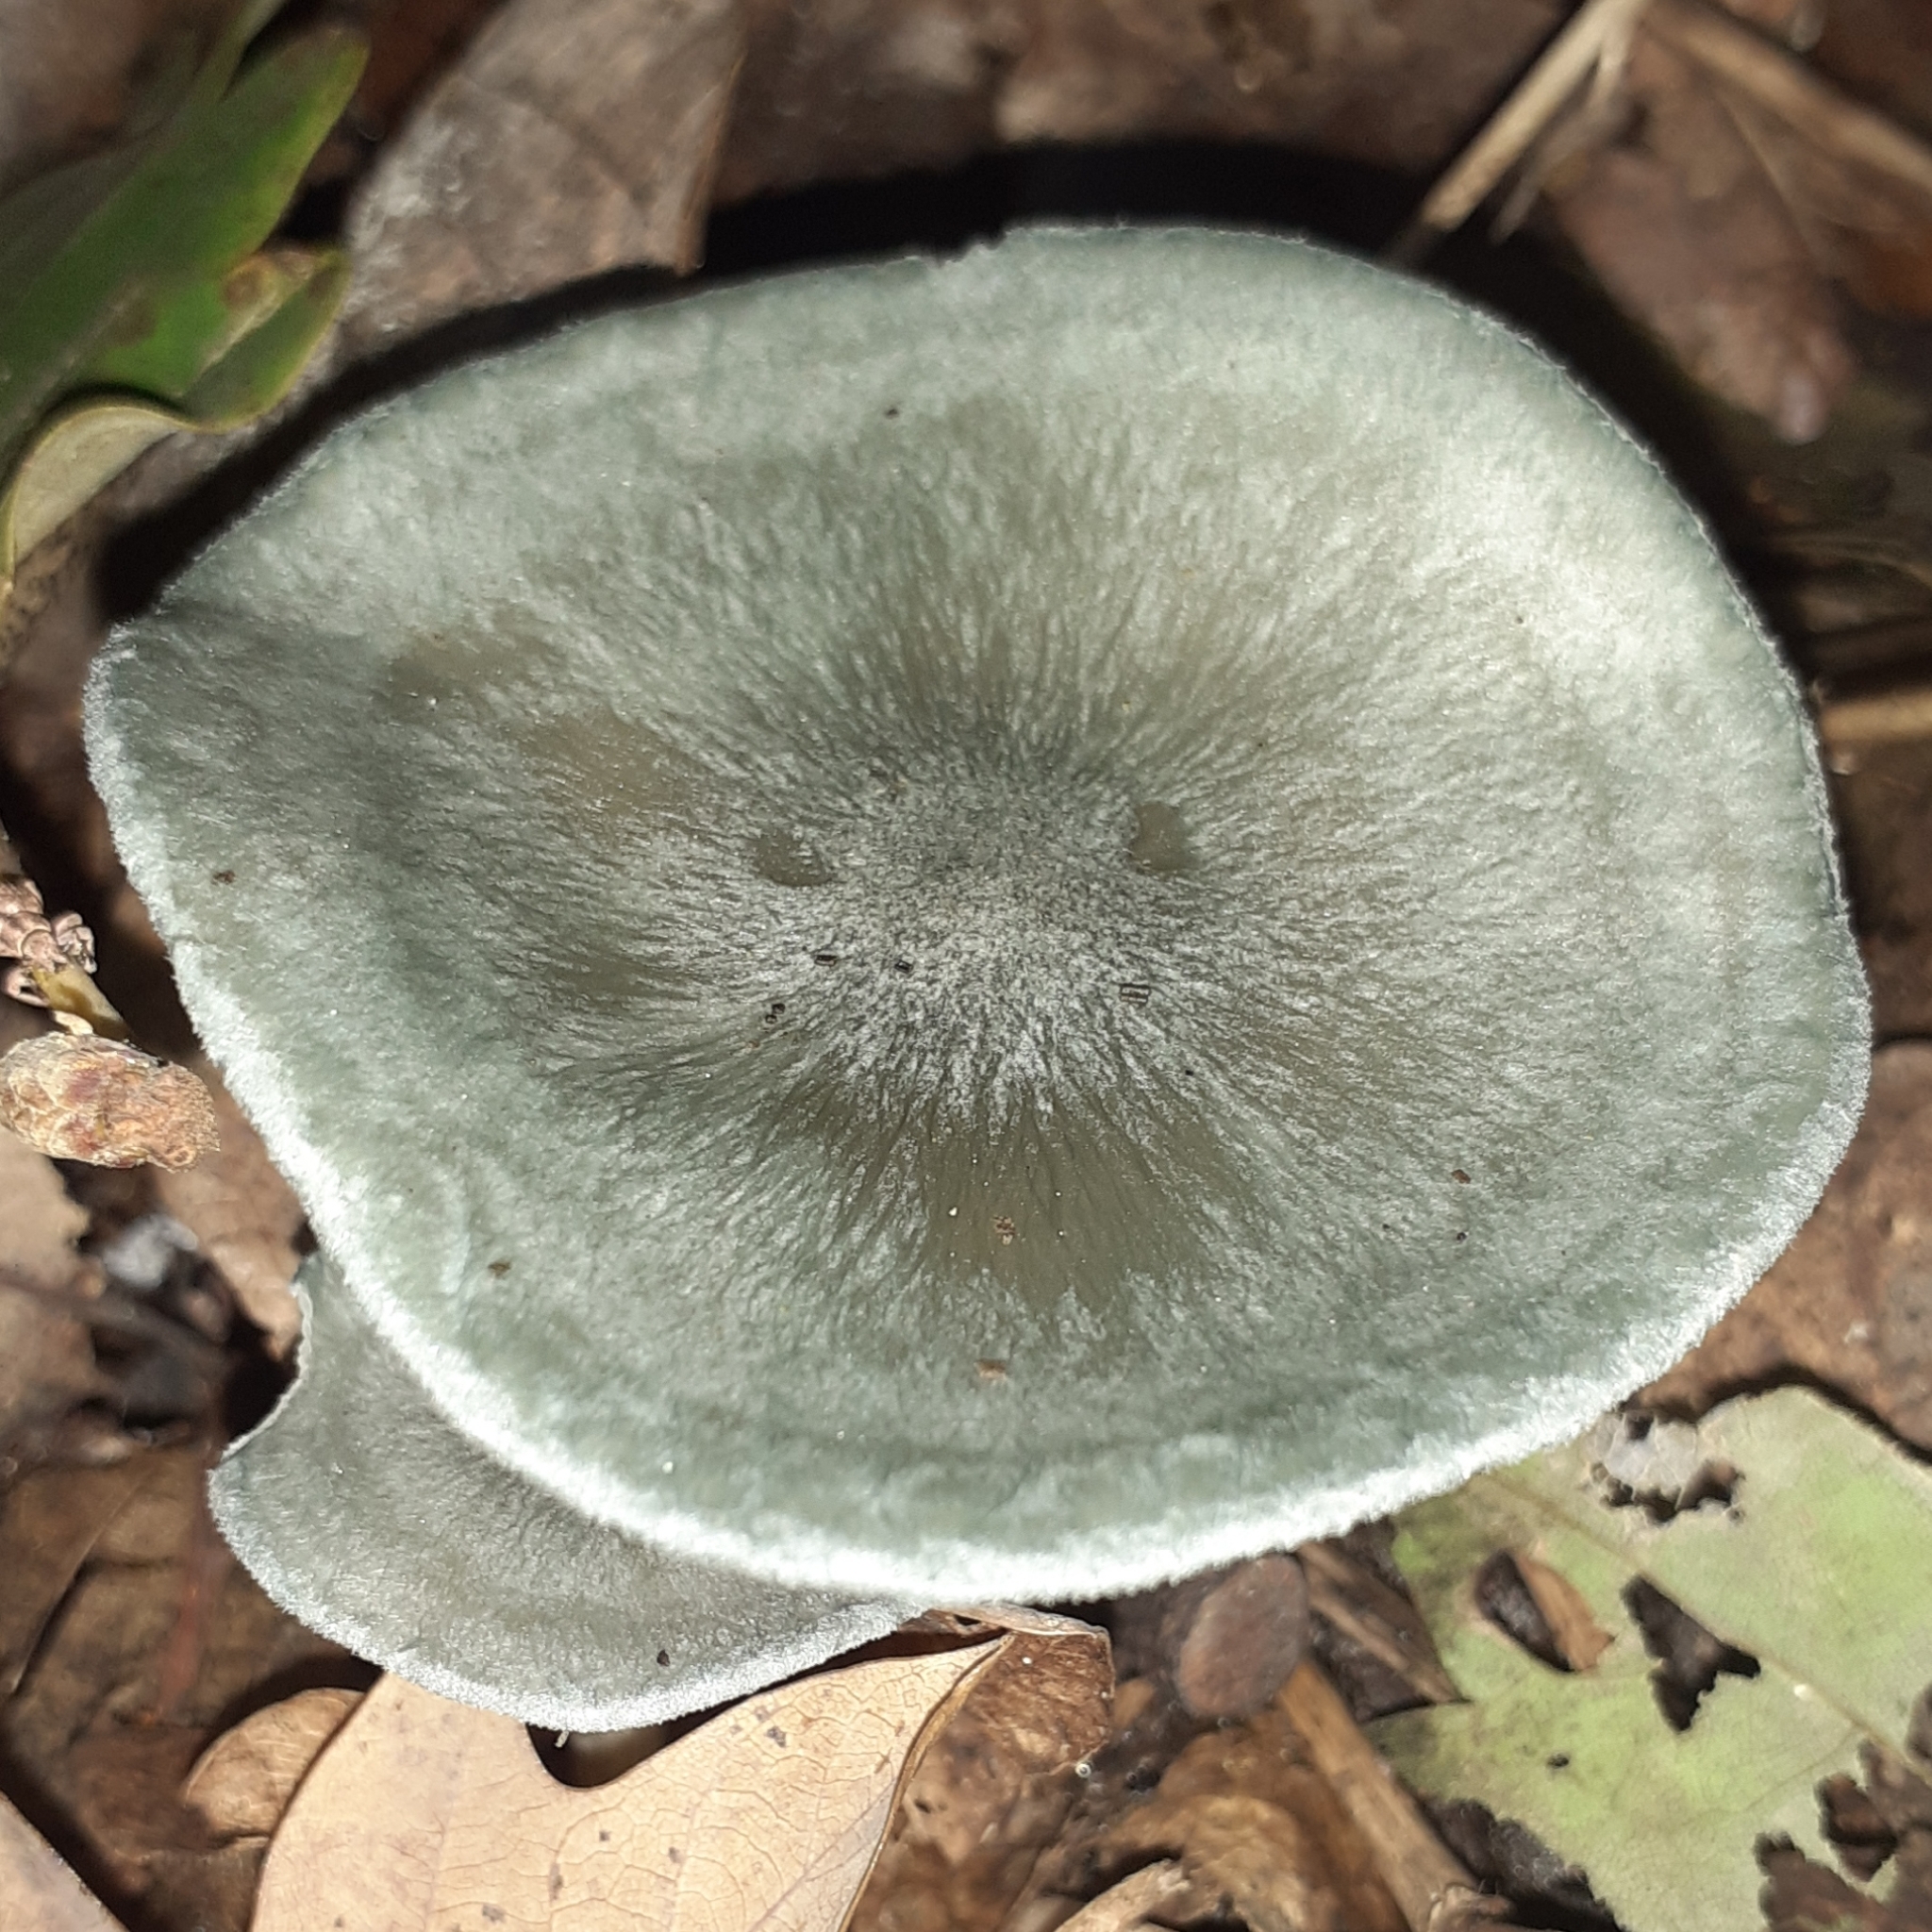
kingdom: Fungi
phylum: Basidiomycota
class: Agaricomycetes
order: Agaricales
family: Tricholomataceae
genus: Collybia
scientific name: Collybia
